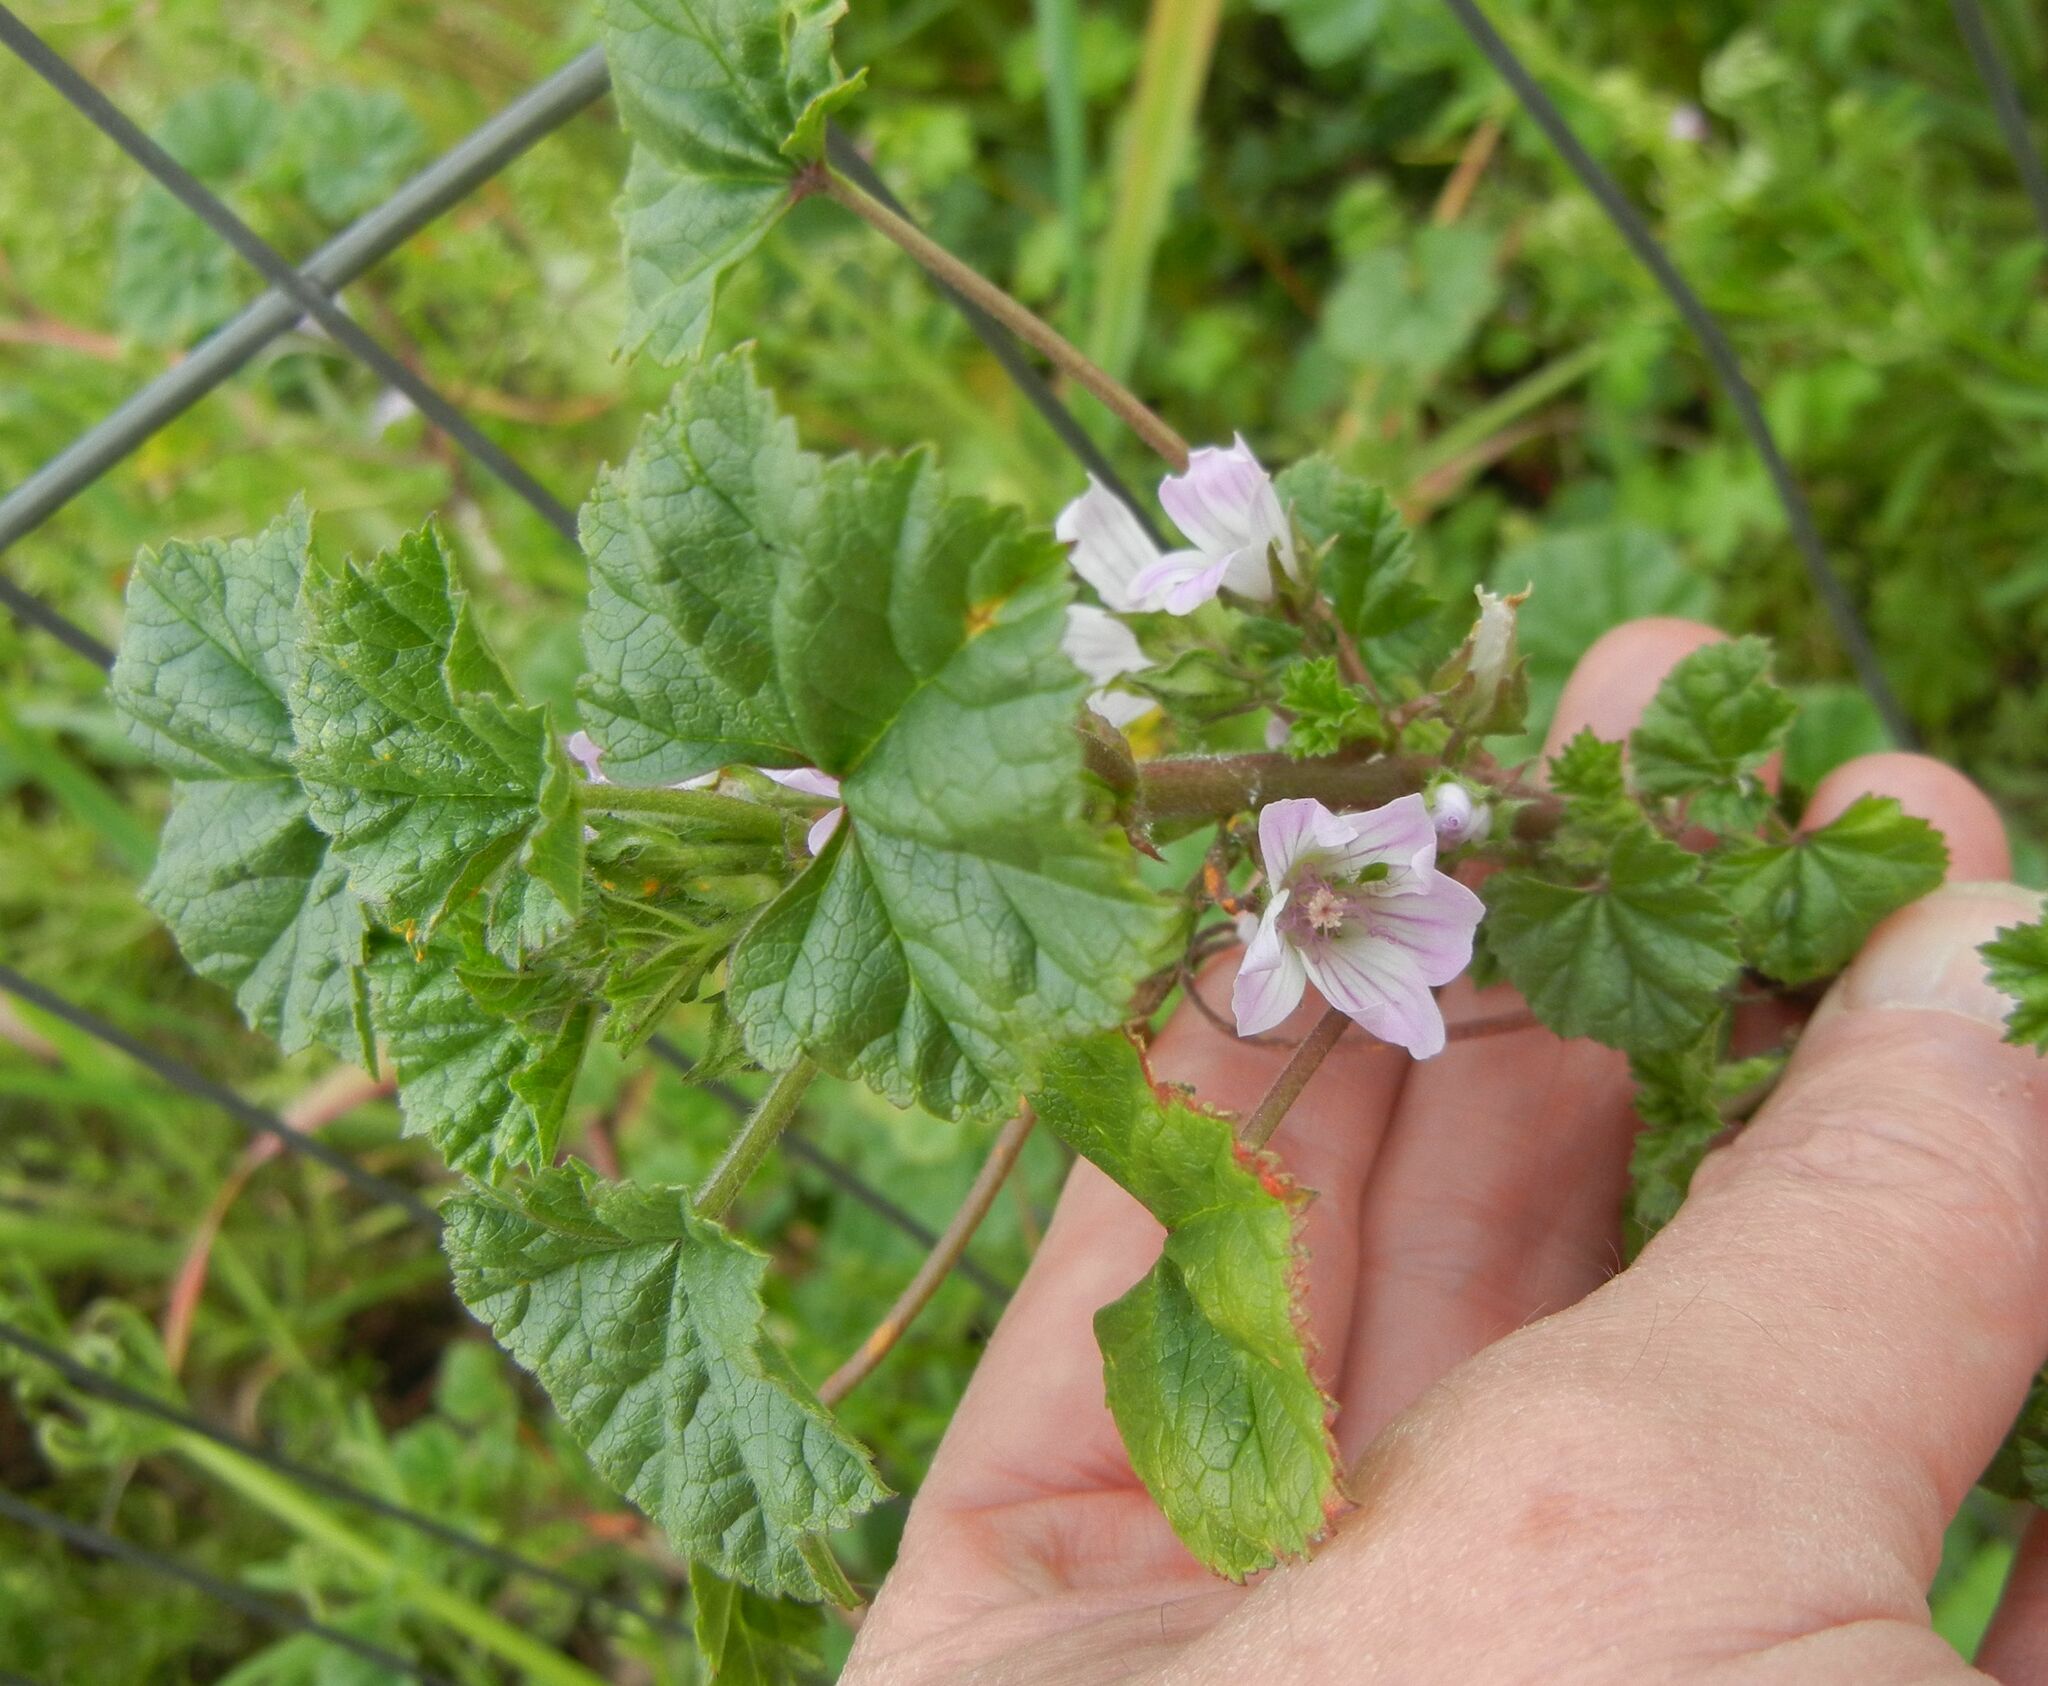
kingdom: Plantae
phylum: Tracheophyta
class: Magnoliopsida
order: Malvales
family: Malvaceae
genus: Malva
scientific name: Malva neglecta
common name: Common mallow
